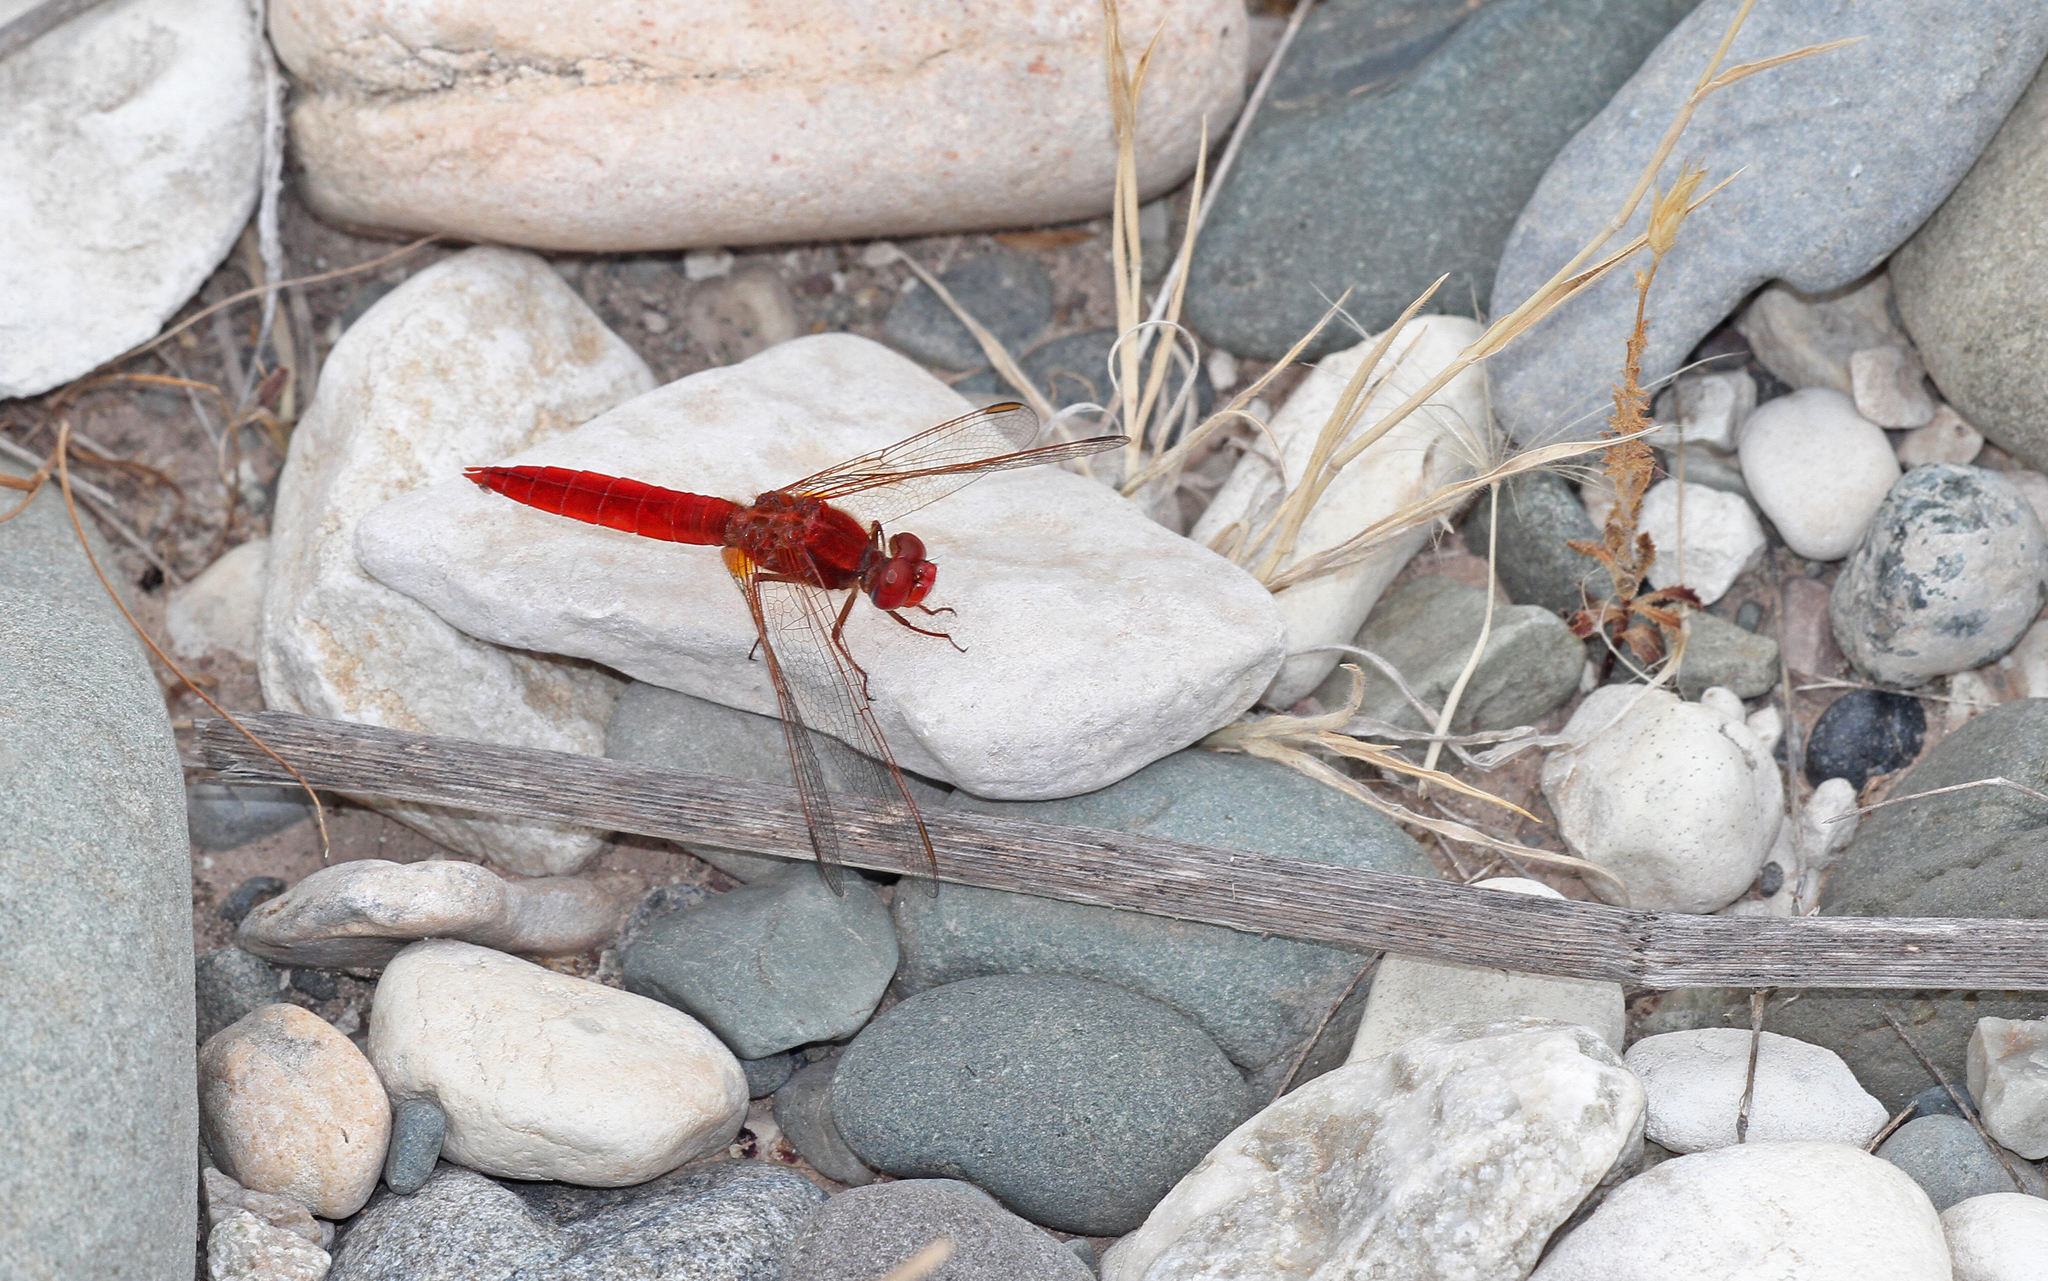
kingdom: Animalia
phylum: Arthropoda
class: Insecta
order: Odonata
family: Libellulidae
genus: Crocothemis
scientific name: Crocothemis erythraea
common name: Scarlet dragonfly
